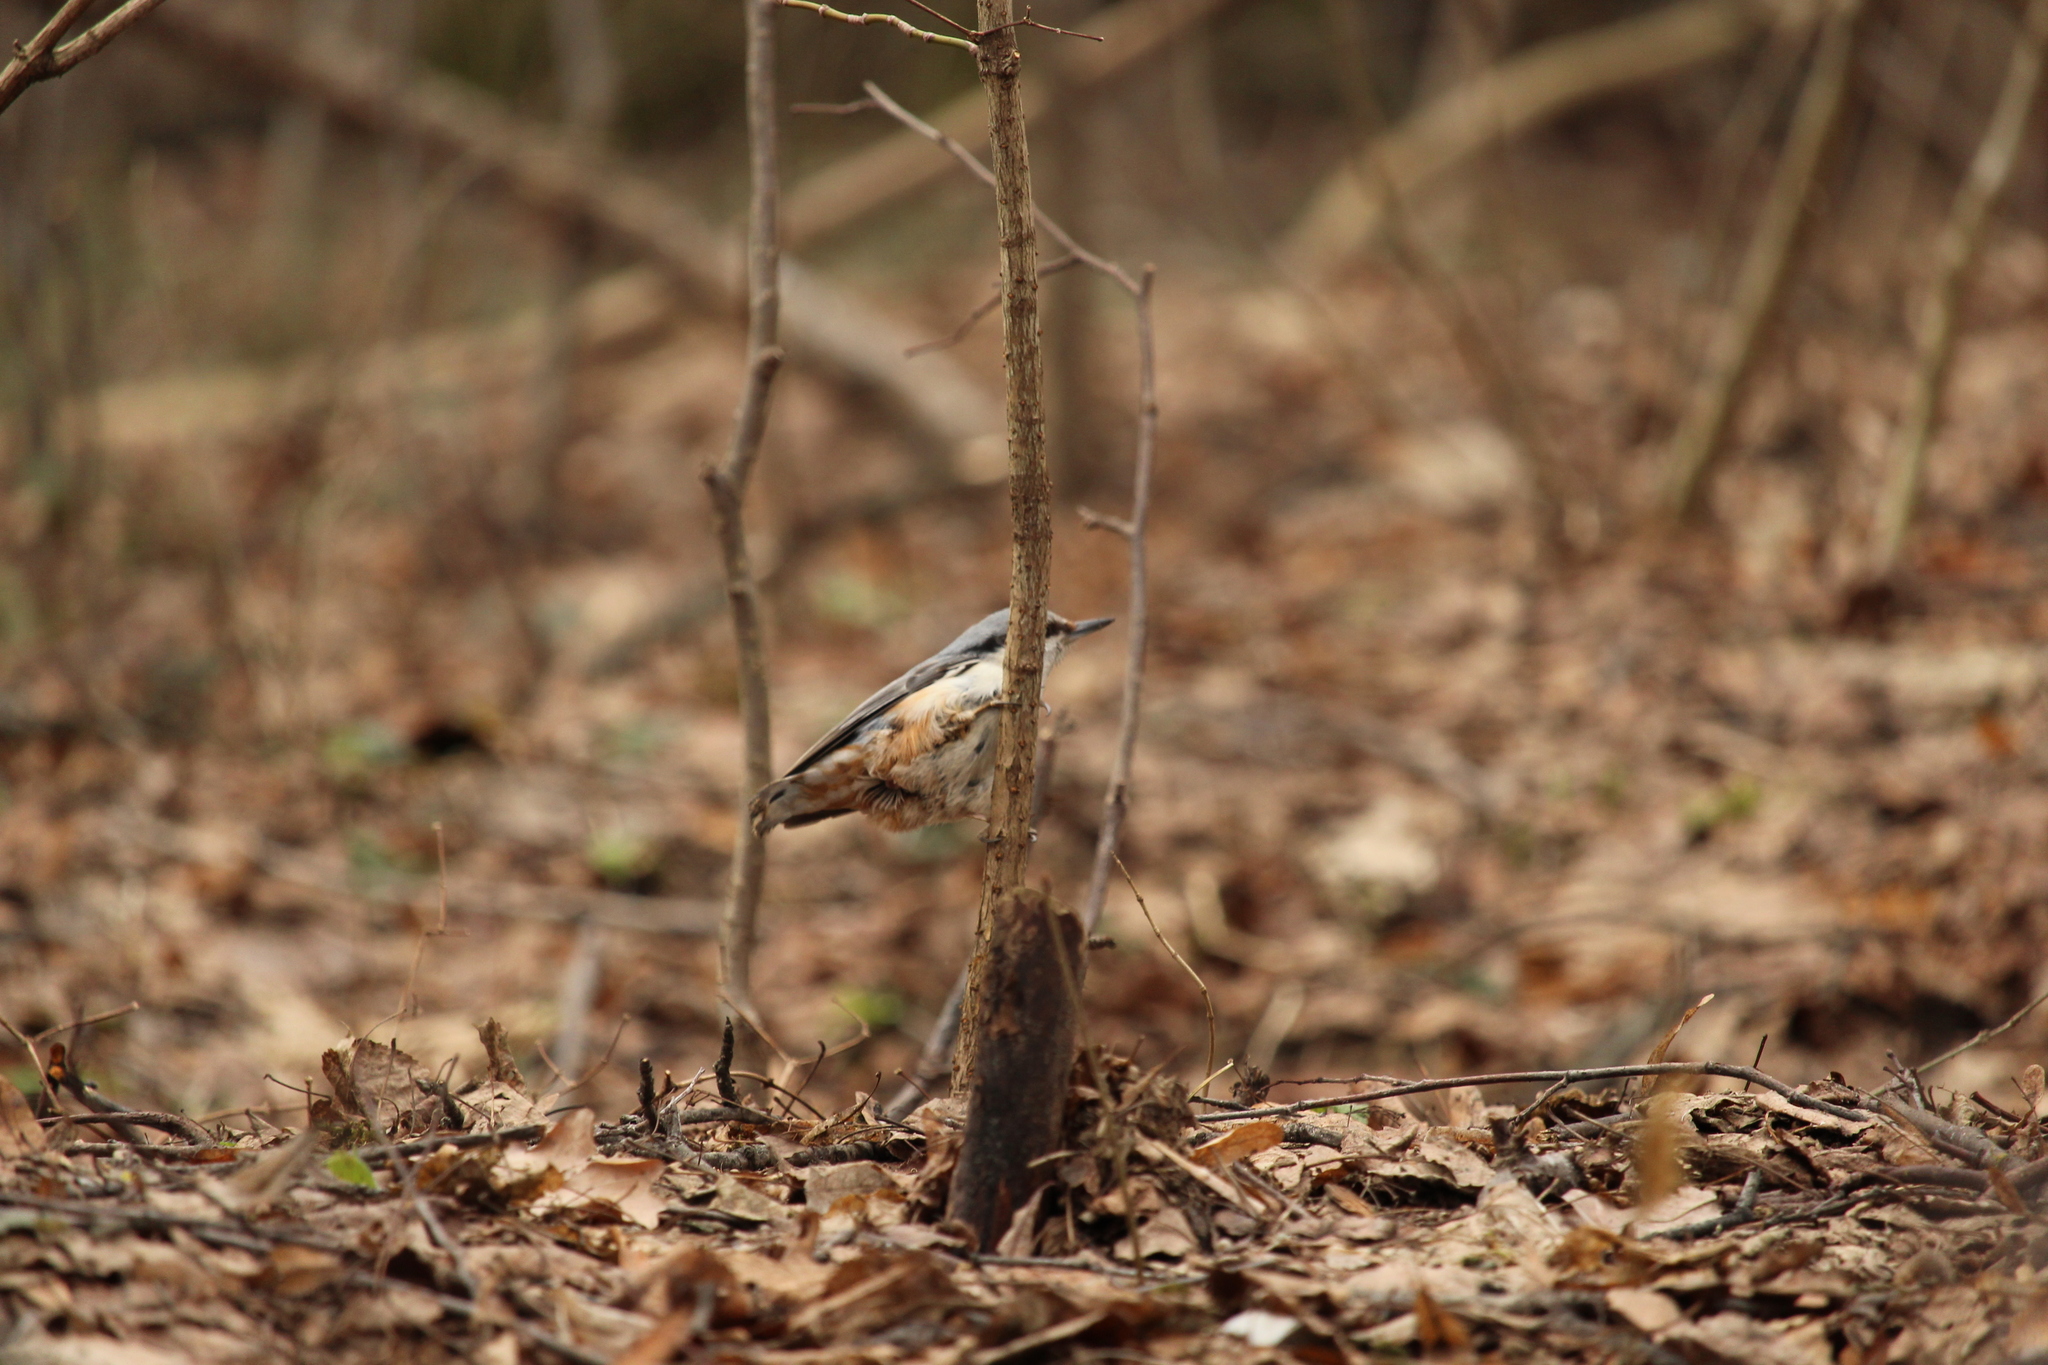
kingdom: Animalia
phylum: Chordata
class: Aves
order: Passeriformes
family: Sittidae
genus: Sitta
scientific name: Sitta europaea
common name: Eurasian nuthatch
